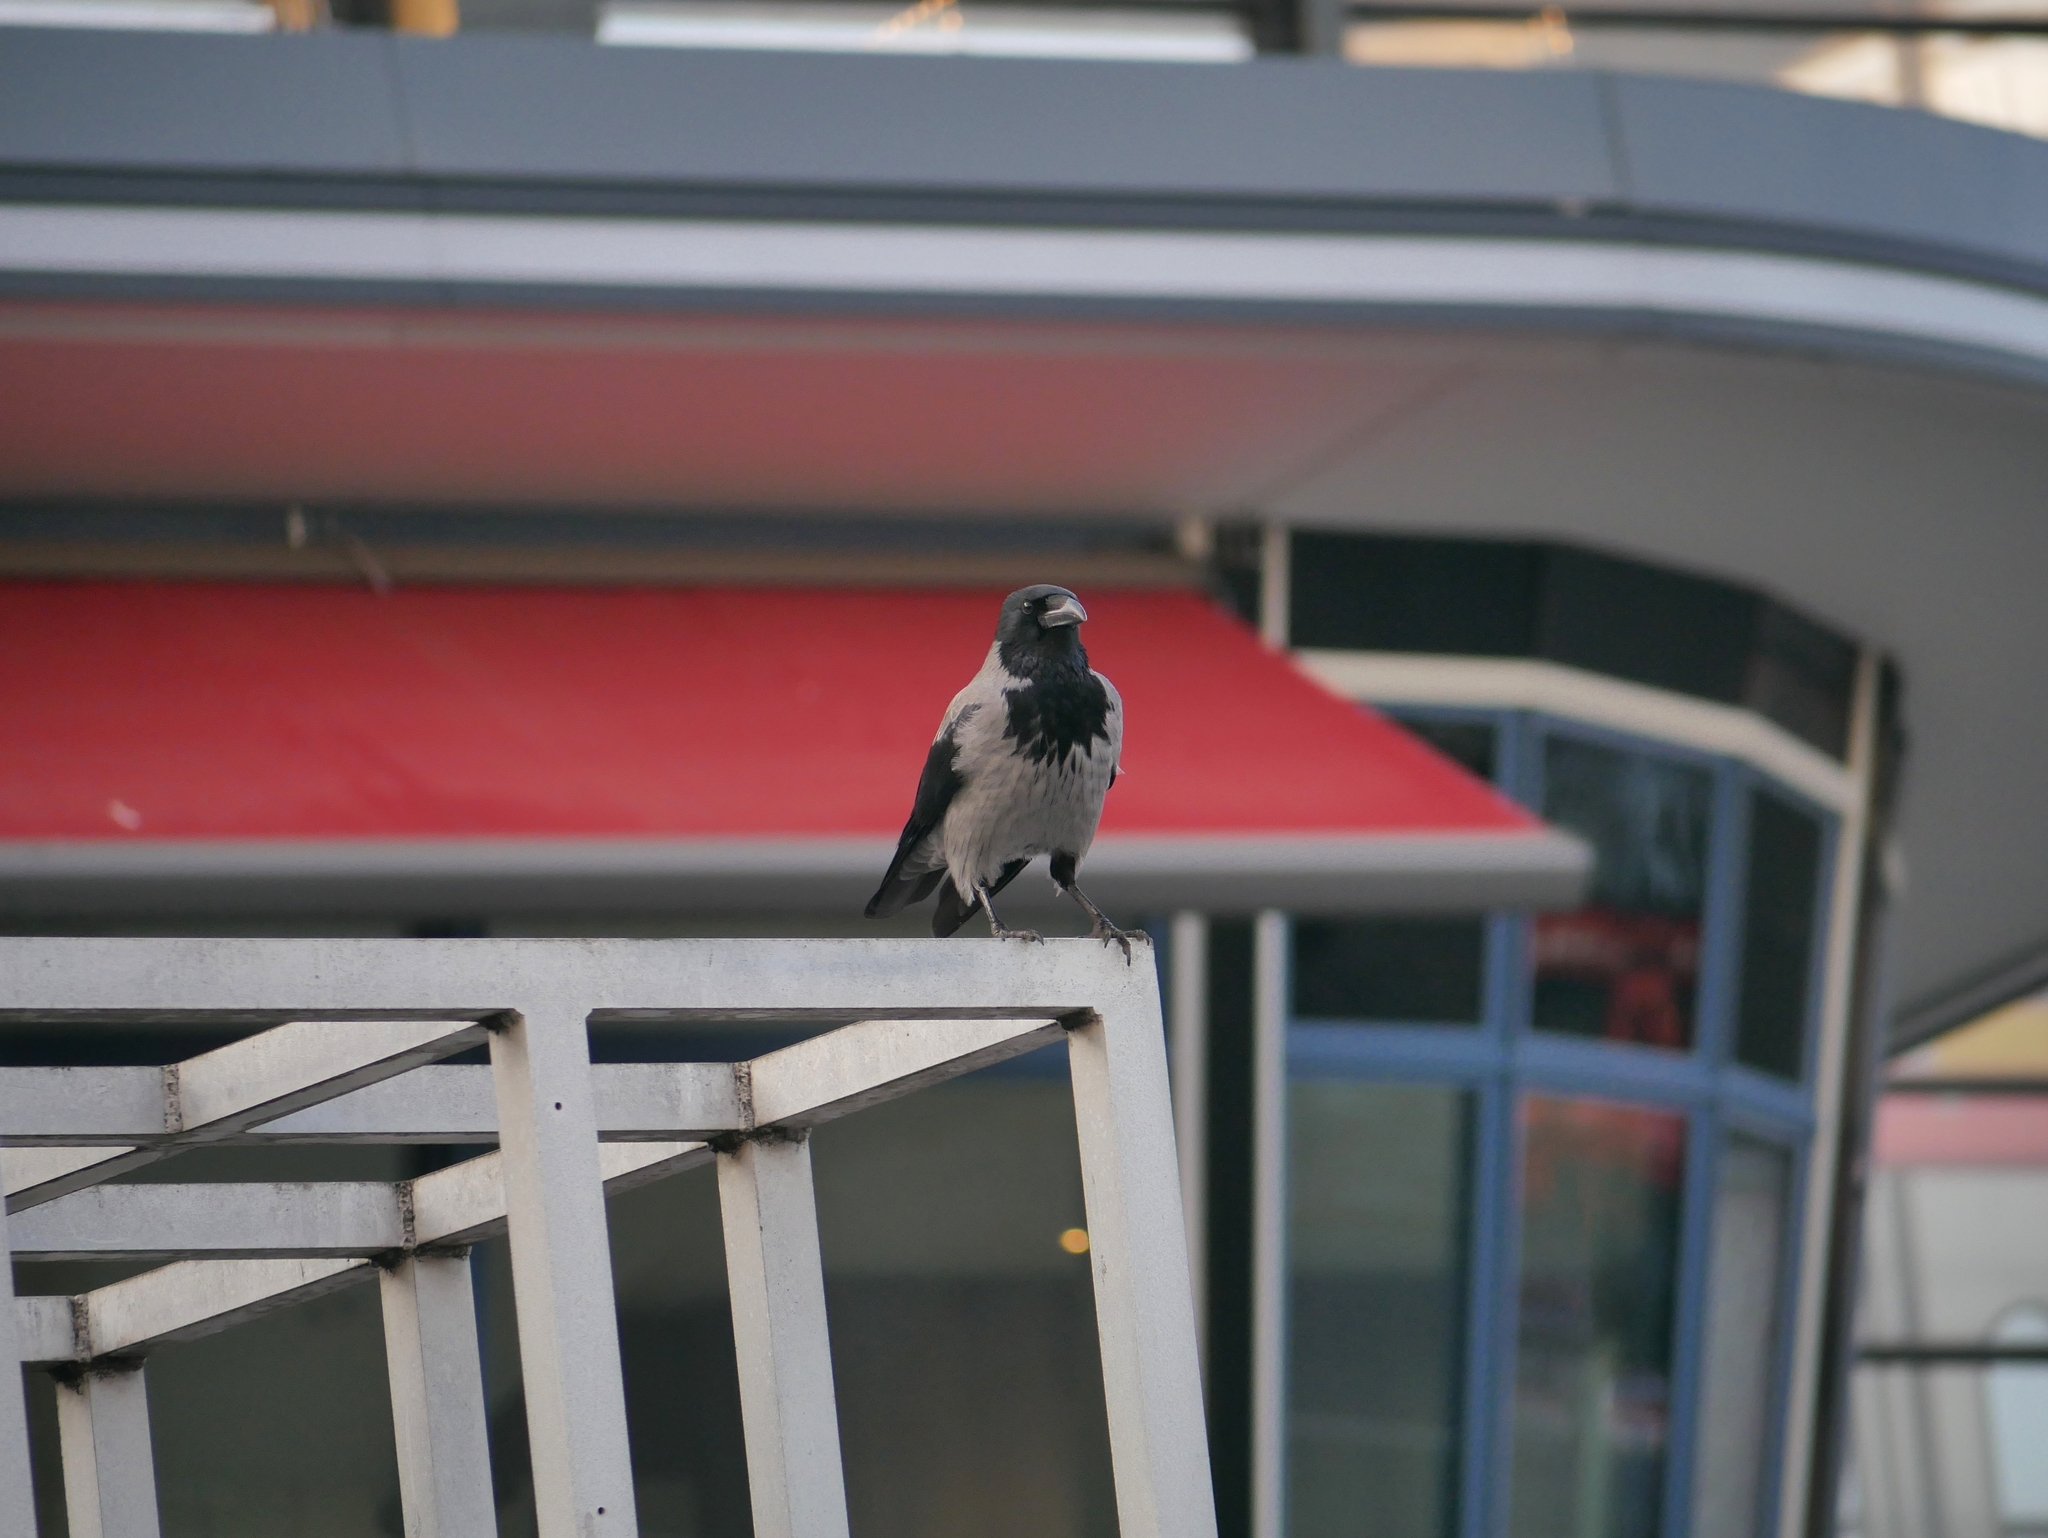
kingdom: Animalia
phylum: Chordata
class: Aves
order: Passeriformes
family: Corvidae
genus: Corvus
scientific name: Corvus cornix
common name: Hooded crow
